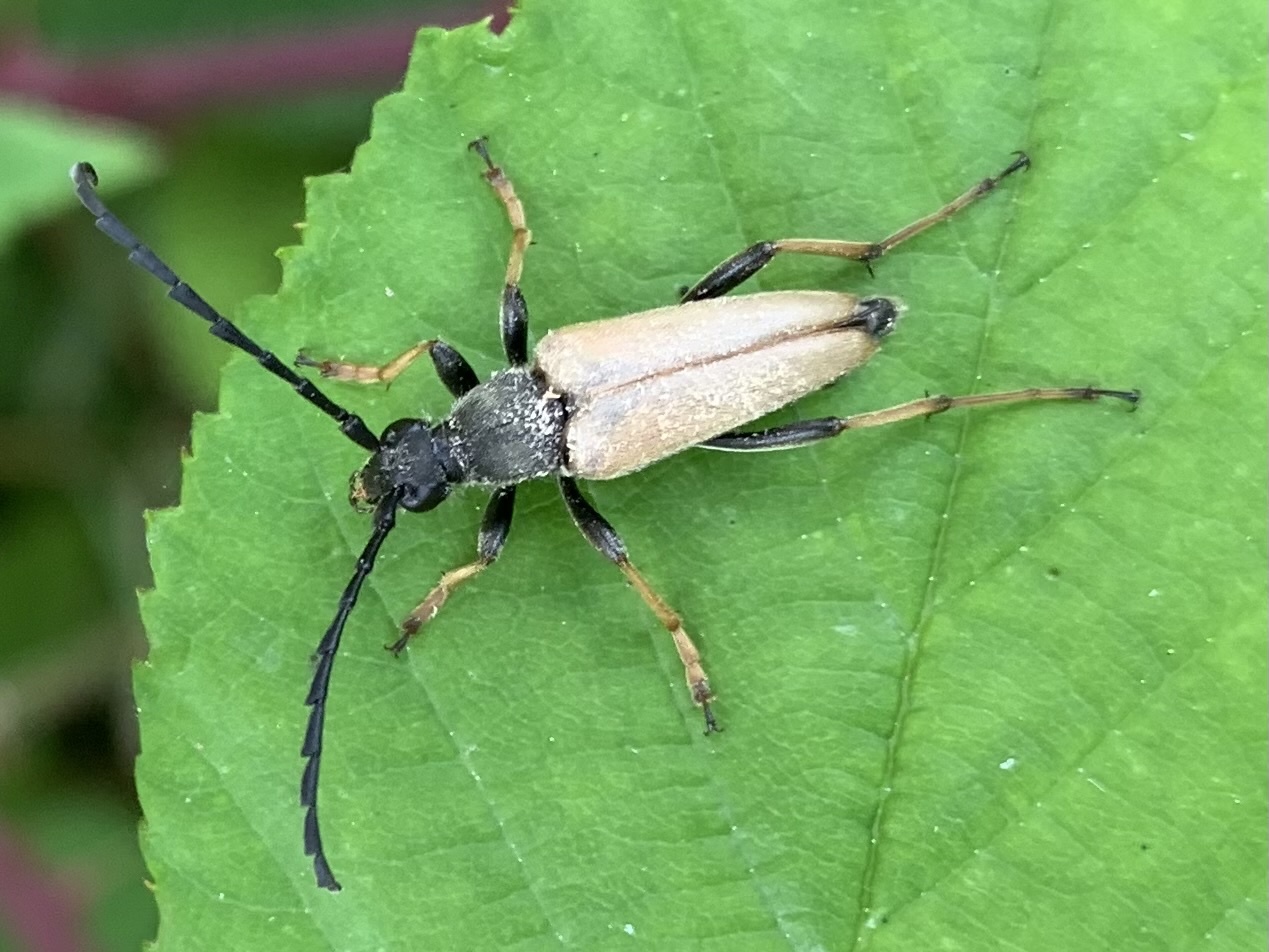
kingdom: Animalia
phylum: Arthropoda
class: Insecta
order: Coleoptera
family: Cerambycidae
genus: Stictoleptura
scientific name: Stictoleptura rubra
